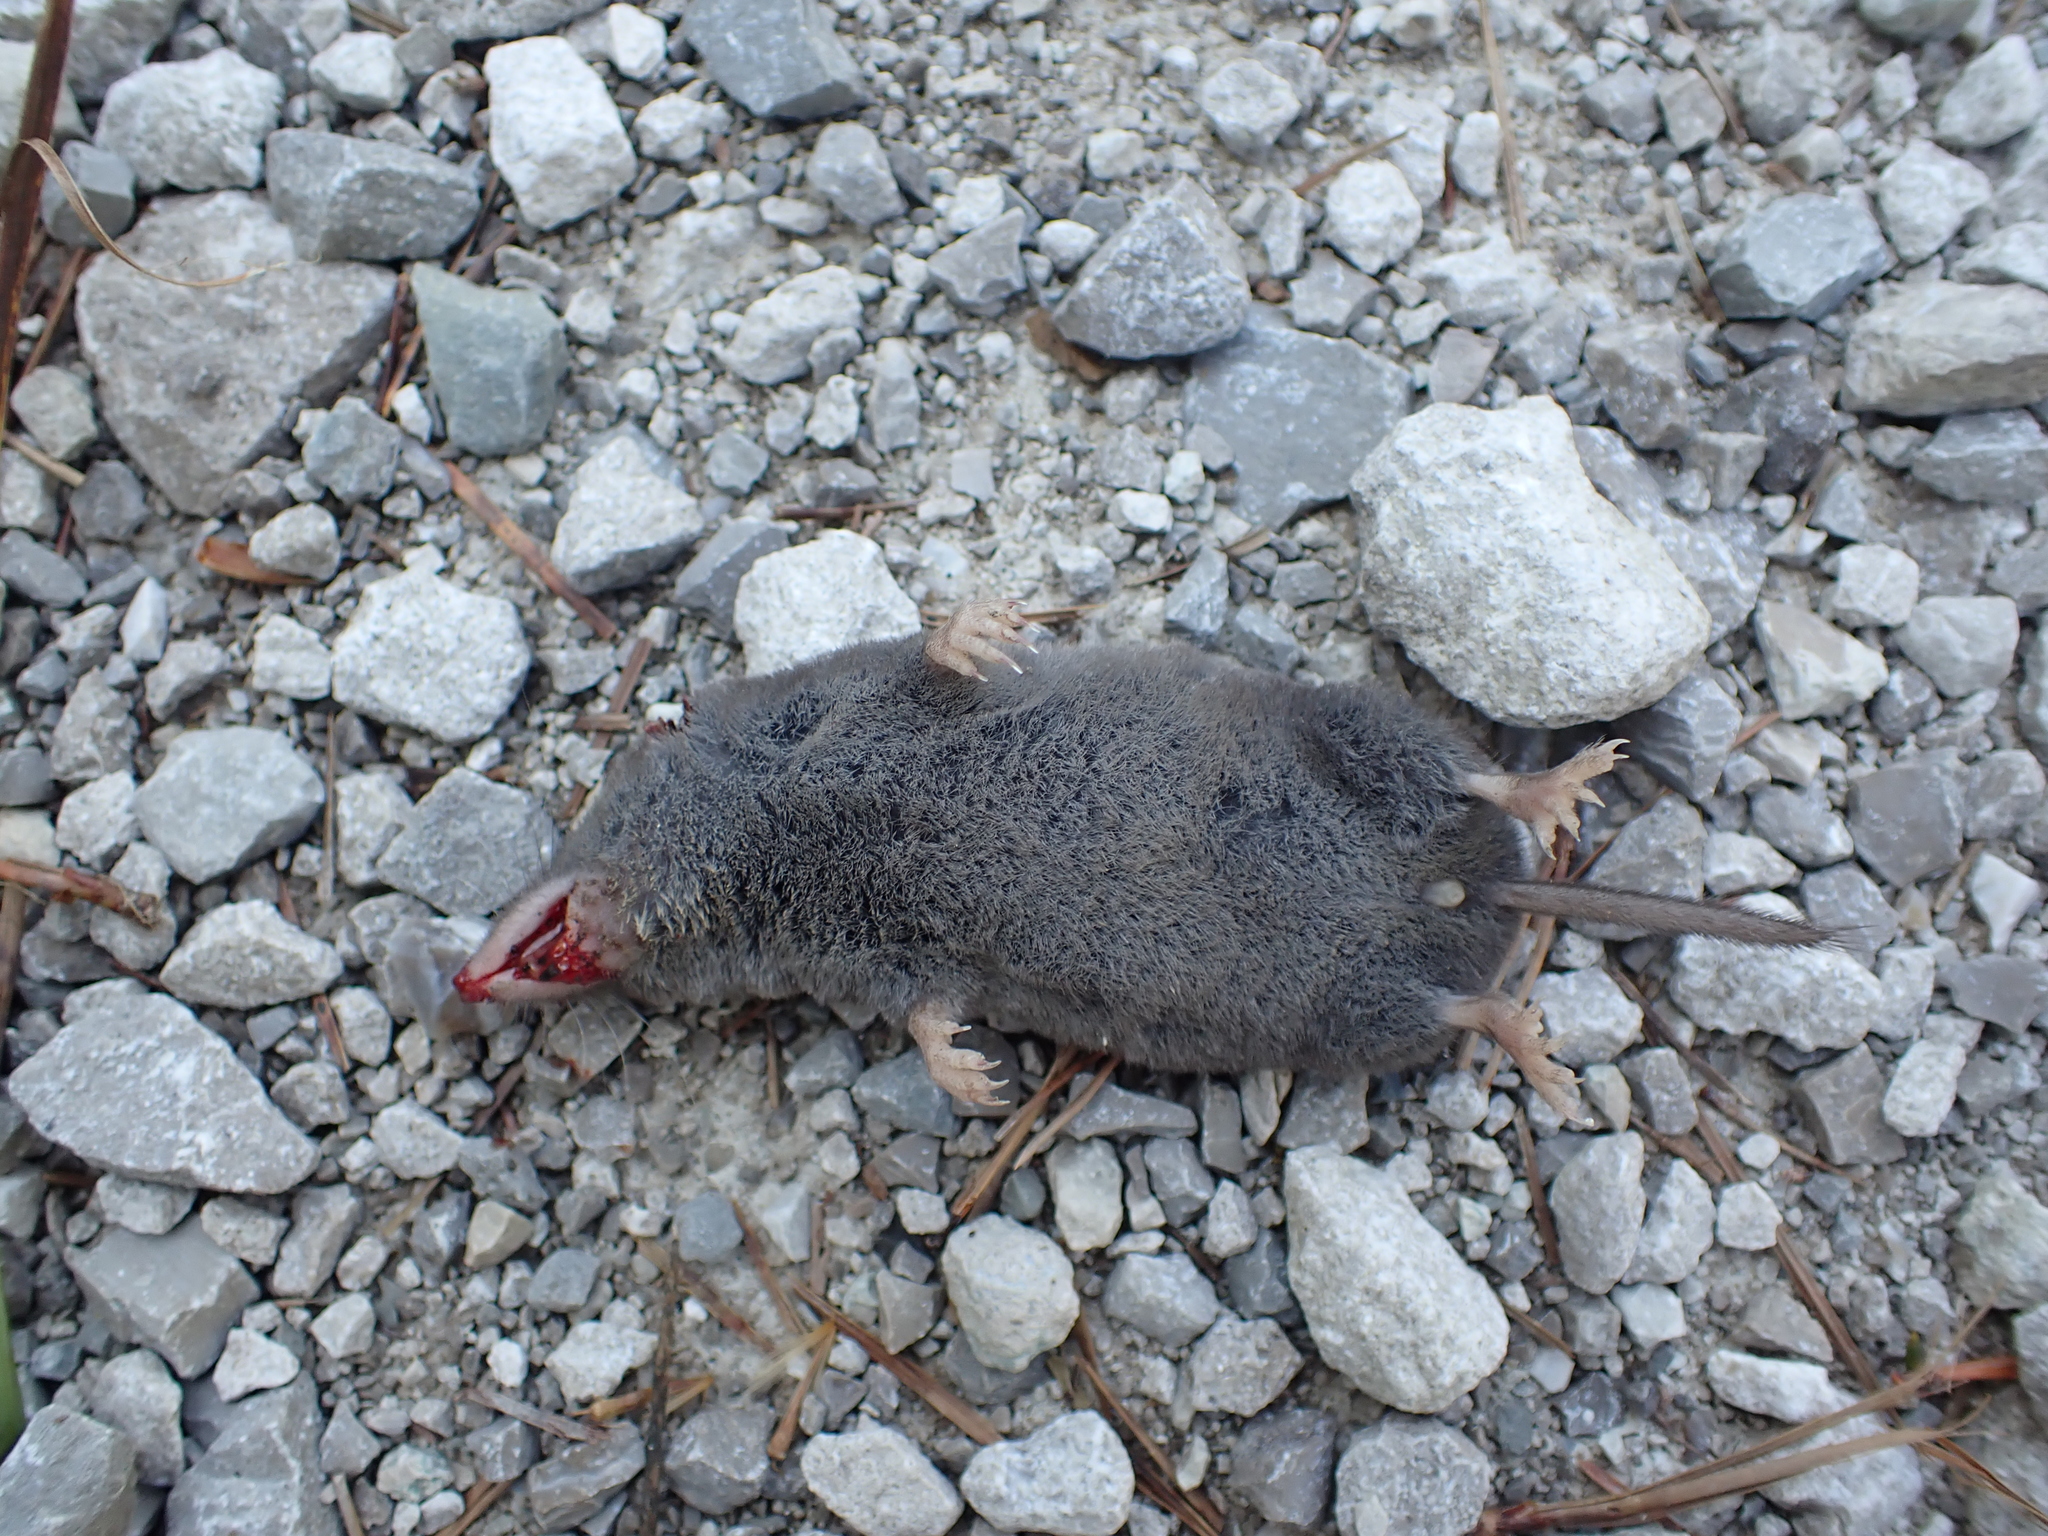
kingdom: Animalia
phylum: Chordata
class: Mammalia
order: Soricomorpha
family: Soricidae
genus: Blarina
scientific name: Blarina brevicauda
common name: Northern short-tailed shrew
